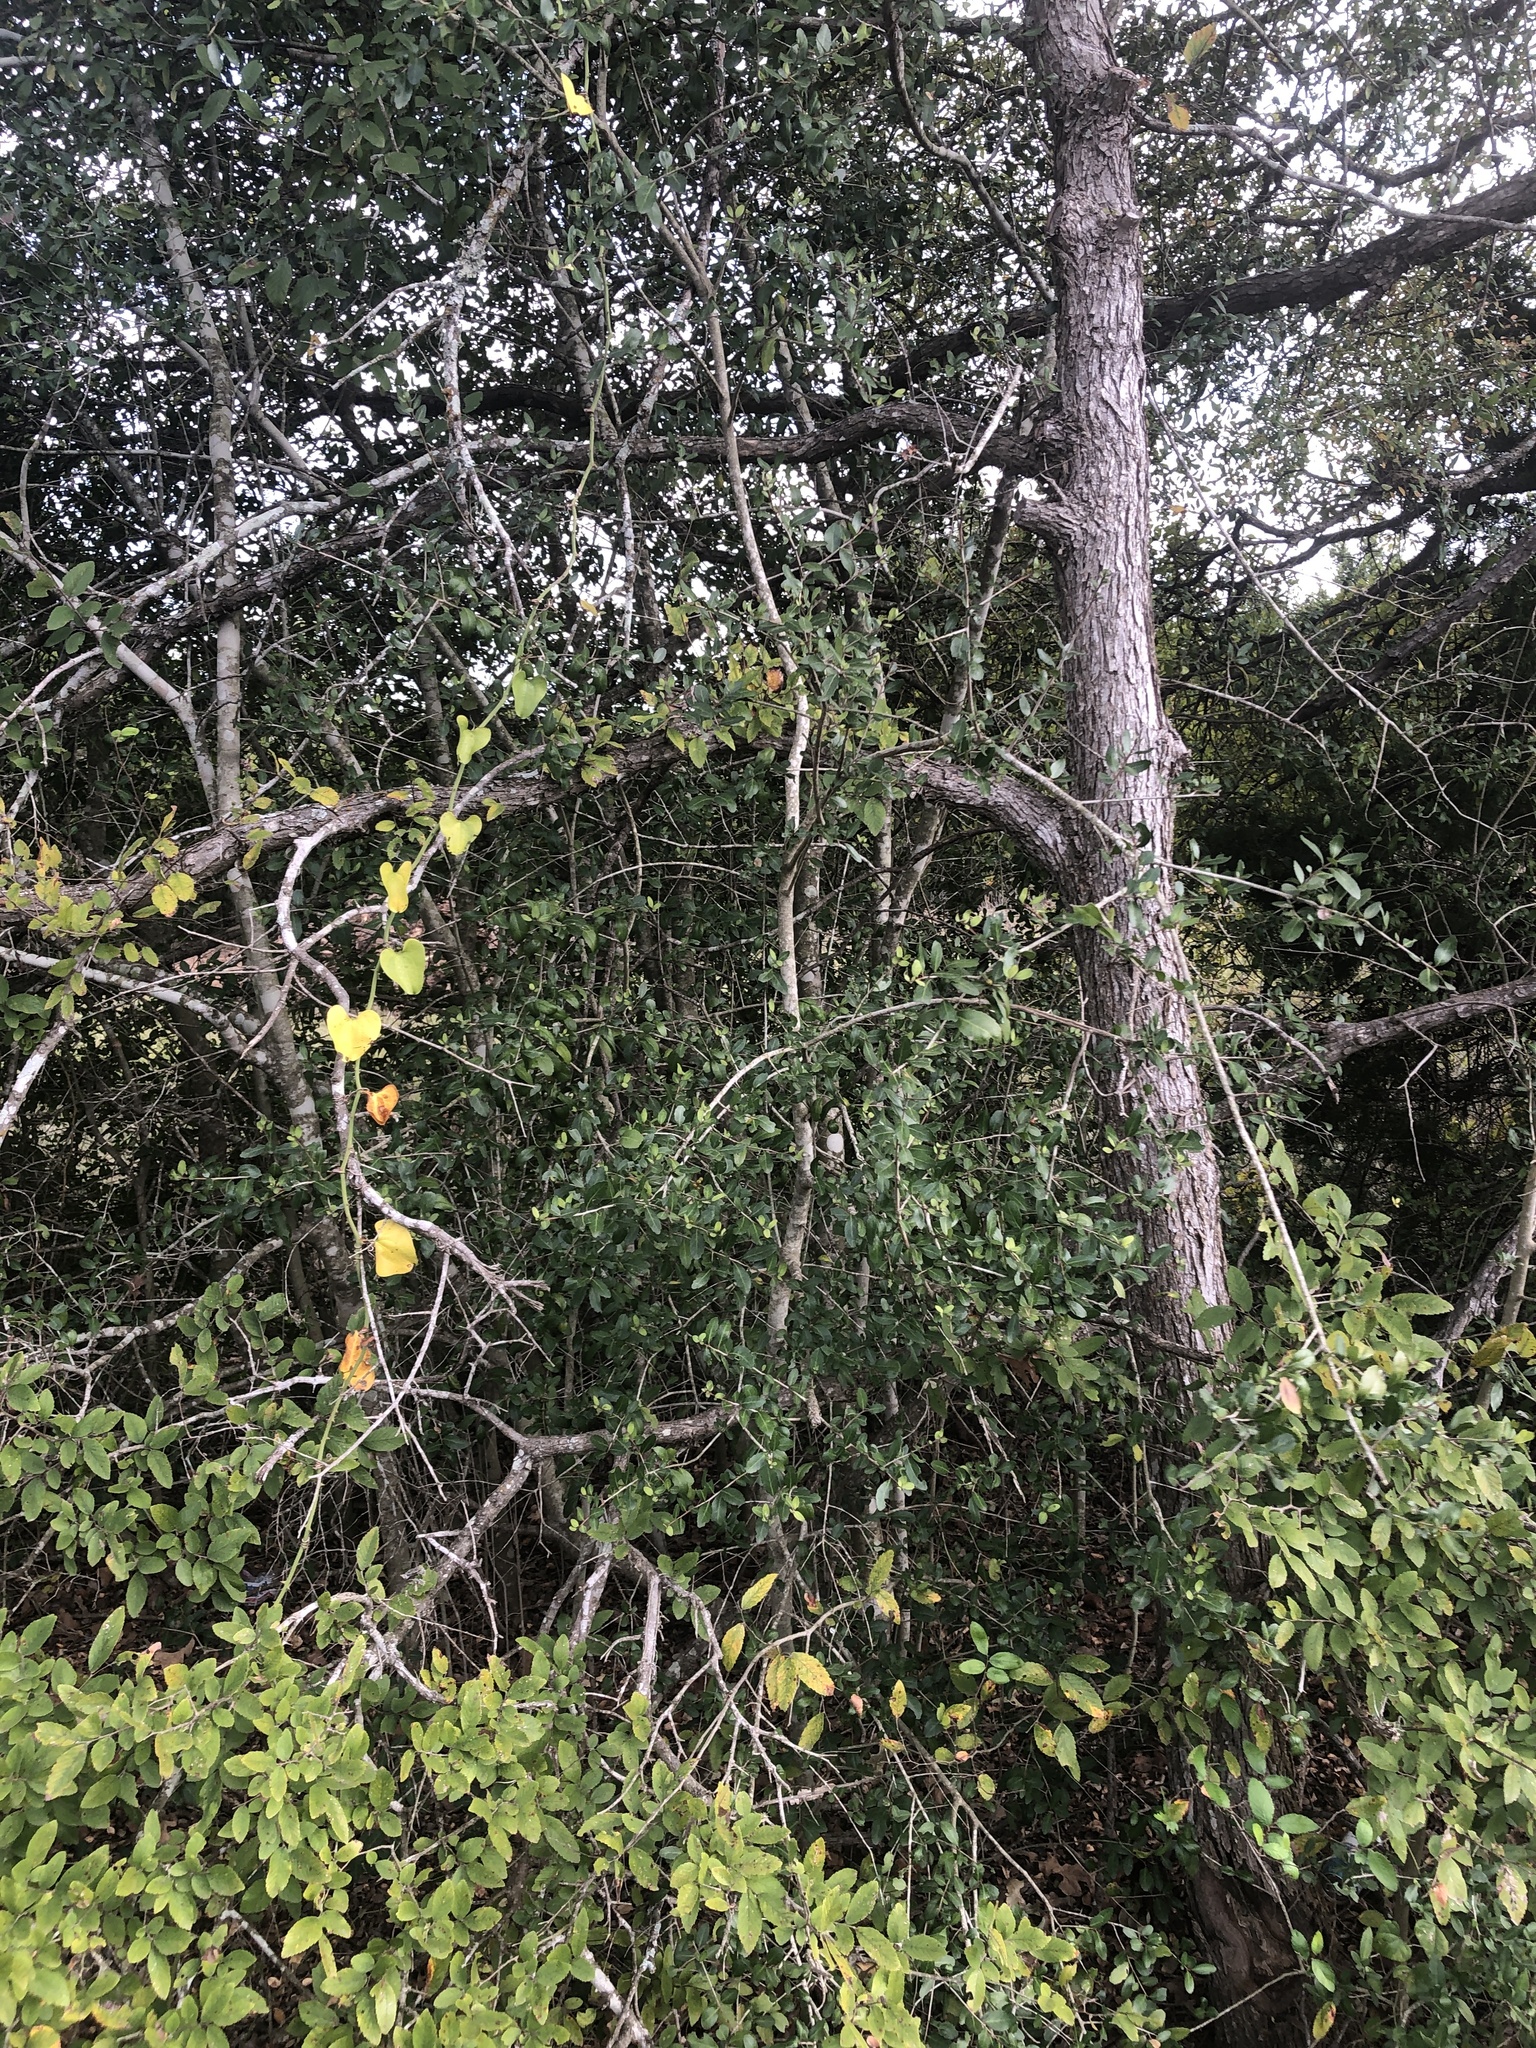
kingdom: Plantae
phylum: Tracheophyta
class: Magnoliopsida
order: Aquifoliales
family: Aquifoliaceae
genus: Ilex
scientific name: Ilex vomitoria
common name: Yaupon holly
